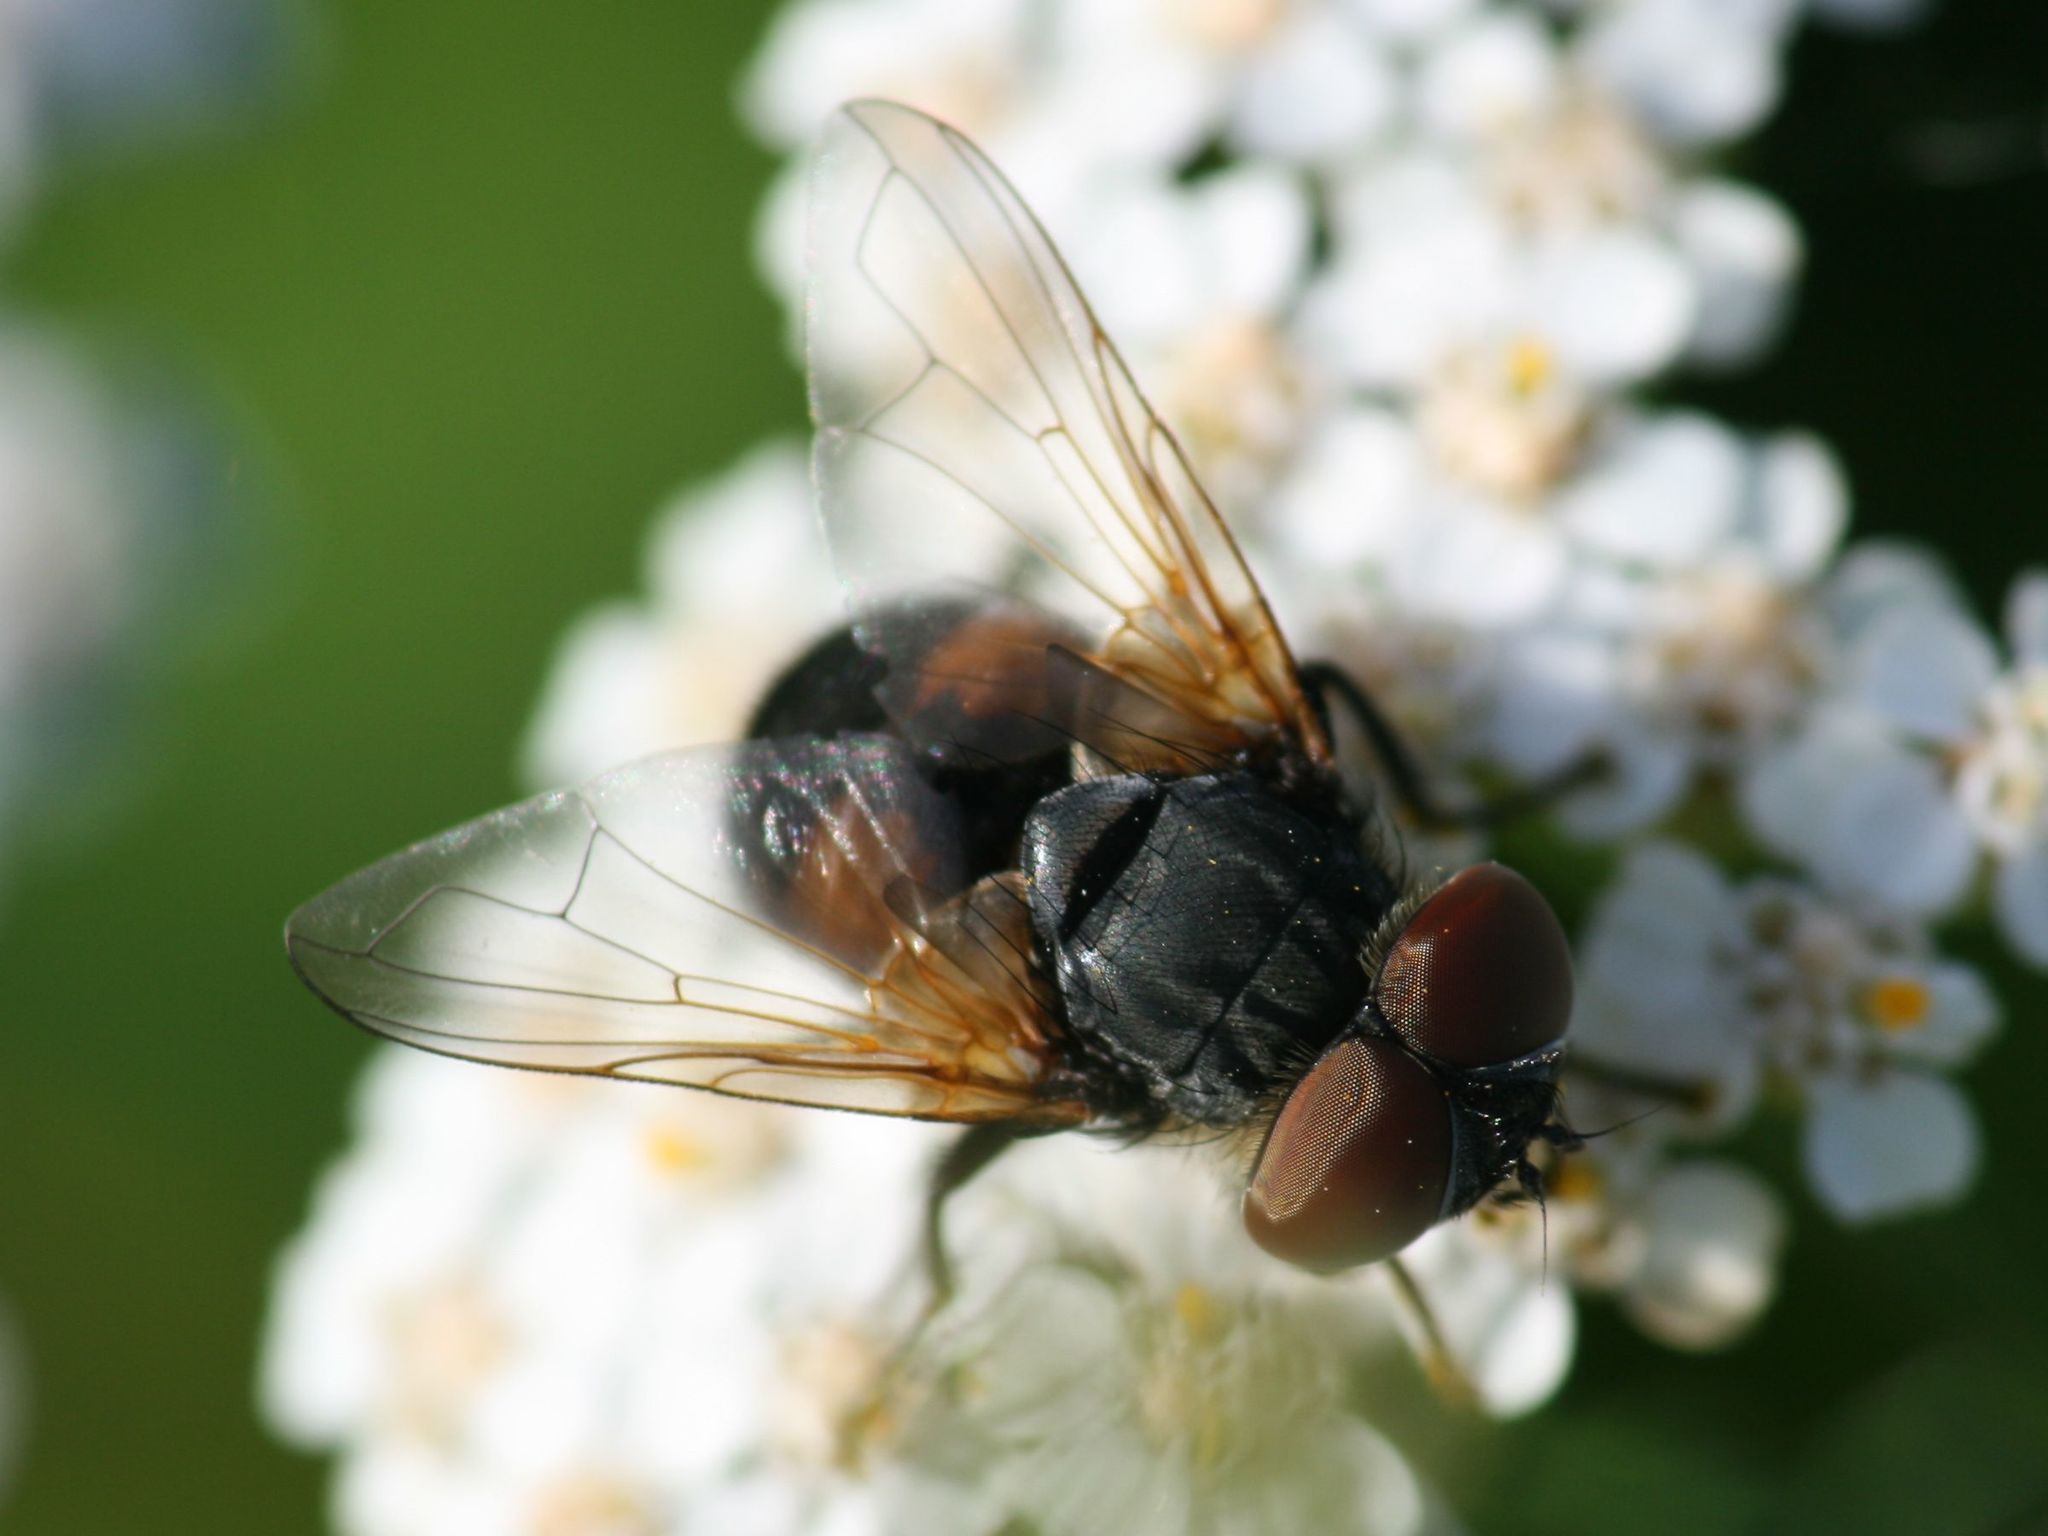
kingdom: Animalia
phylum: Arthropoda
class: Insecta
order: Diptera
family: Tachinidae
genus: Phasia
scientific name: Phasia aurigera
